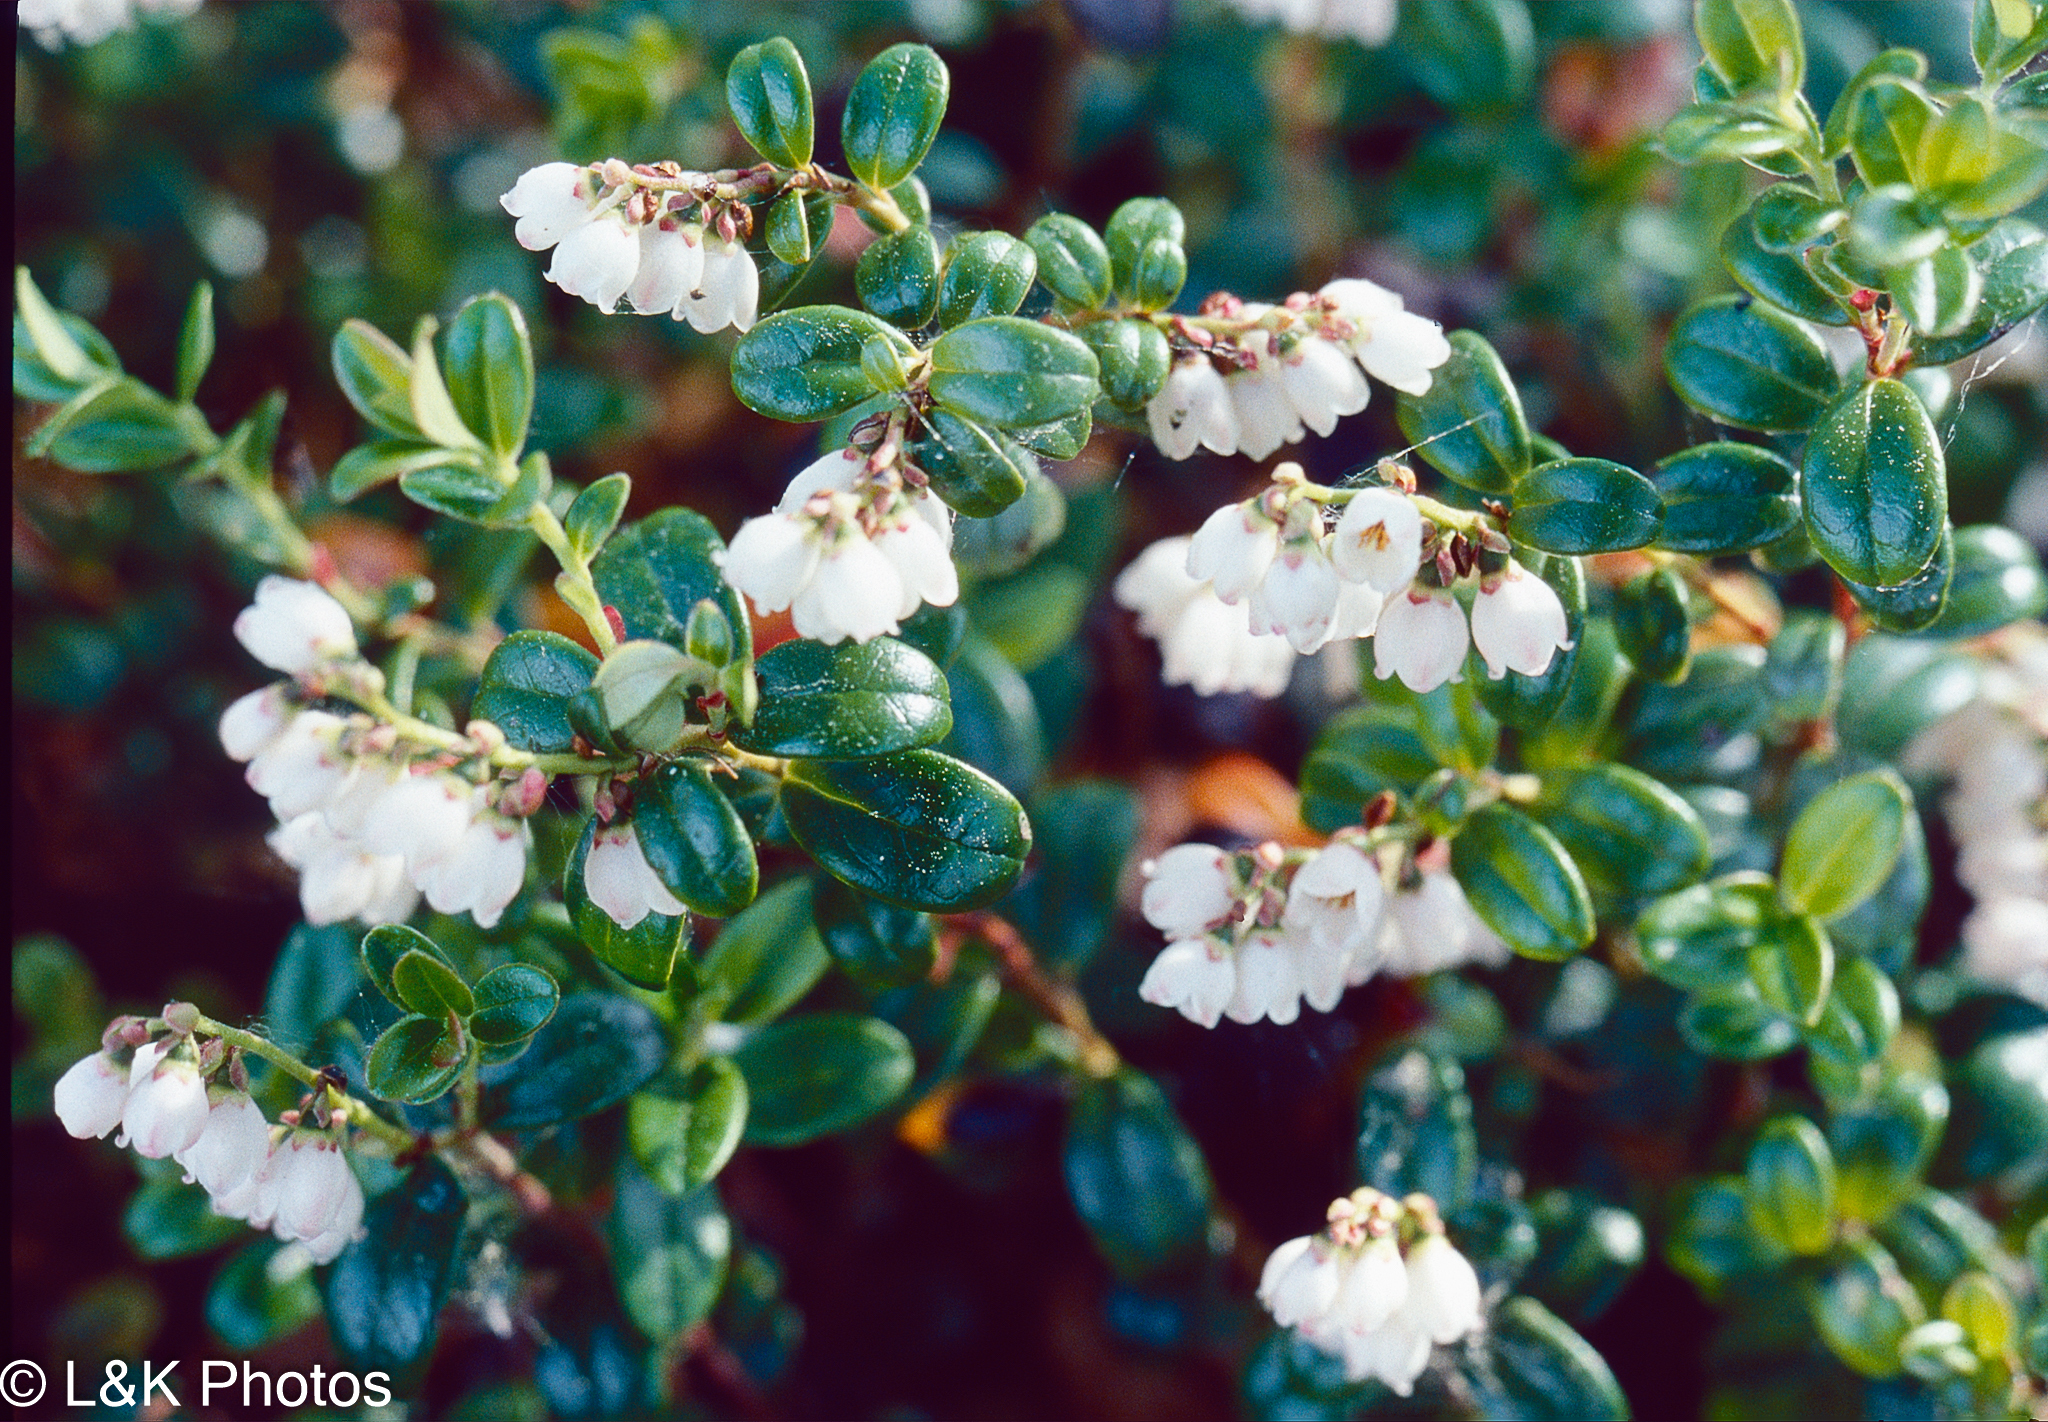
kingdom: Plantae
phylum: Tracheophyta
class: Magnoliopsida
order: Ericales
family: Ericaceae
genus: Vaccinium
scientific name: Vaccinium vitis-idaea
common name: Cowberry
